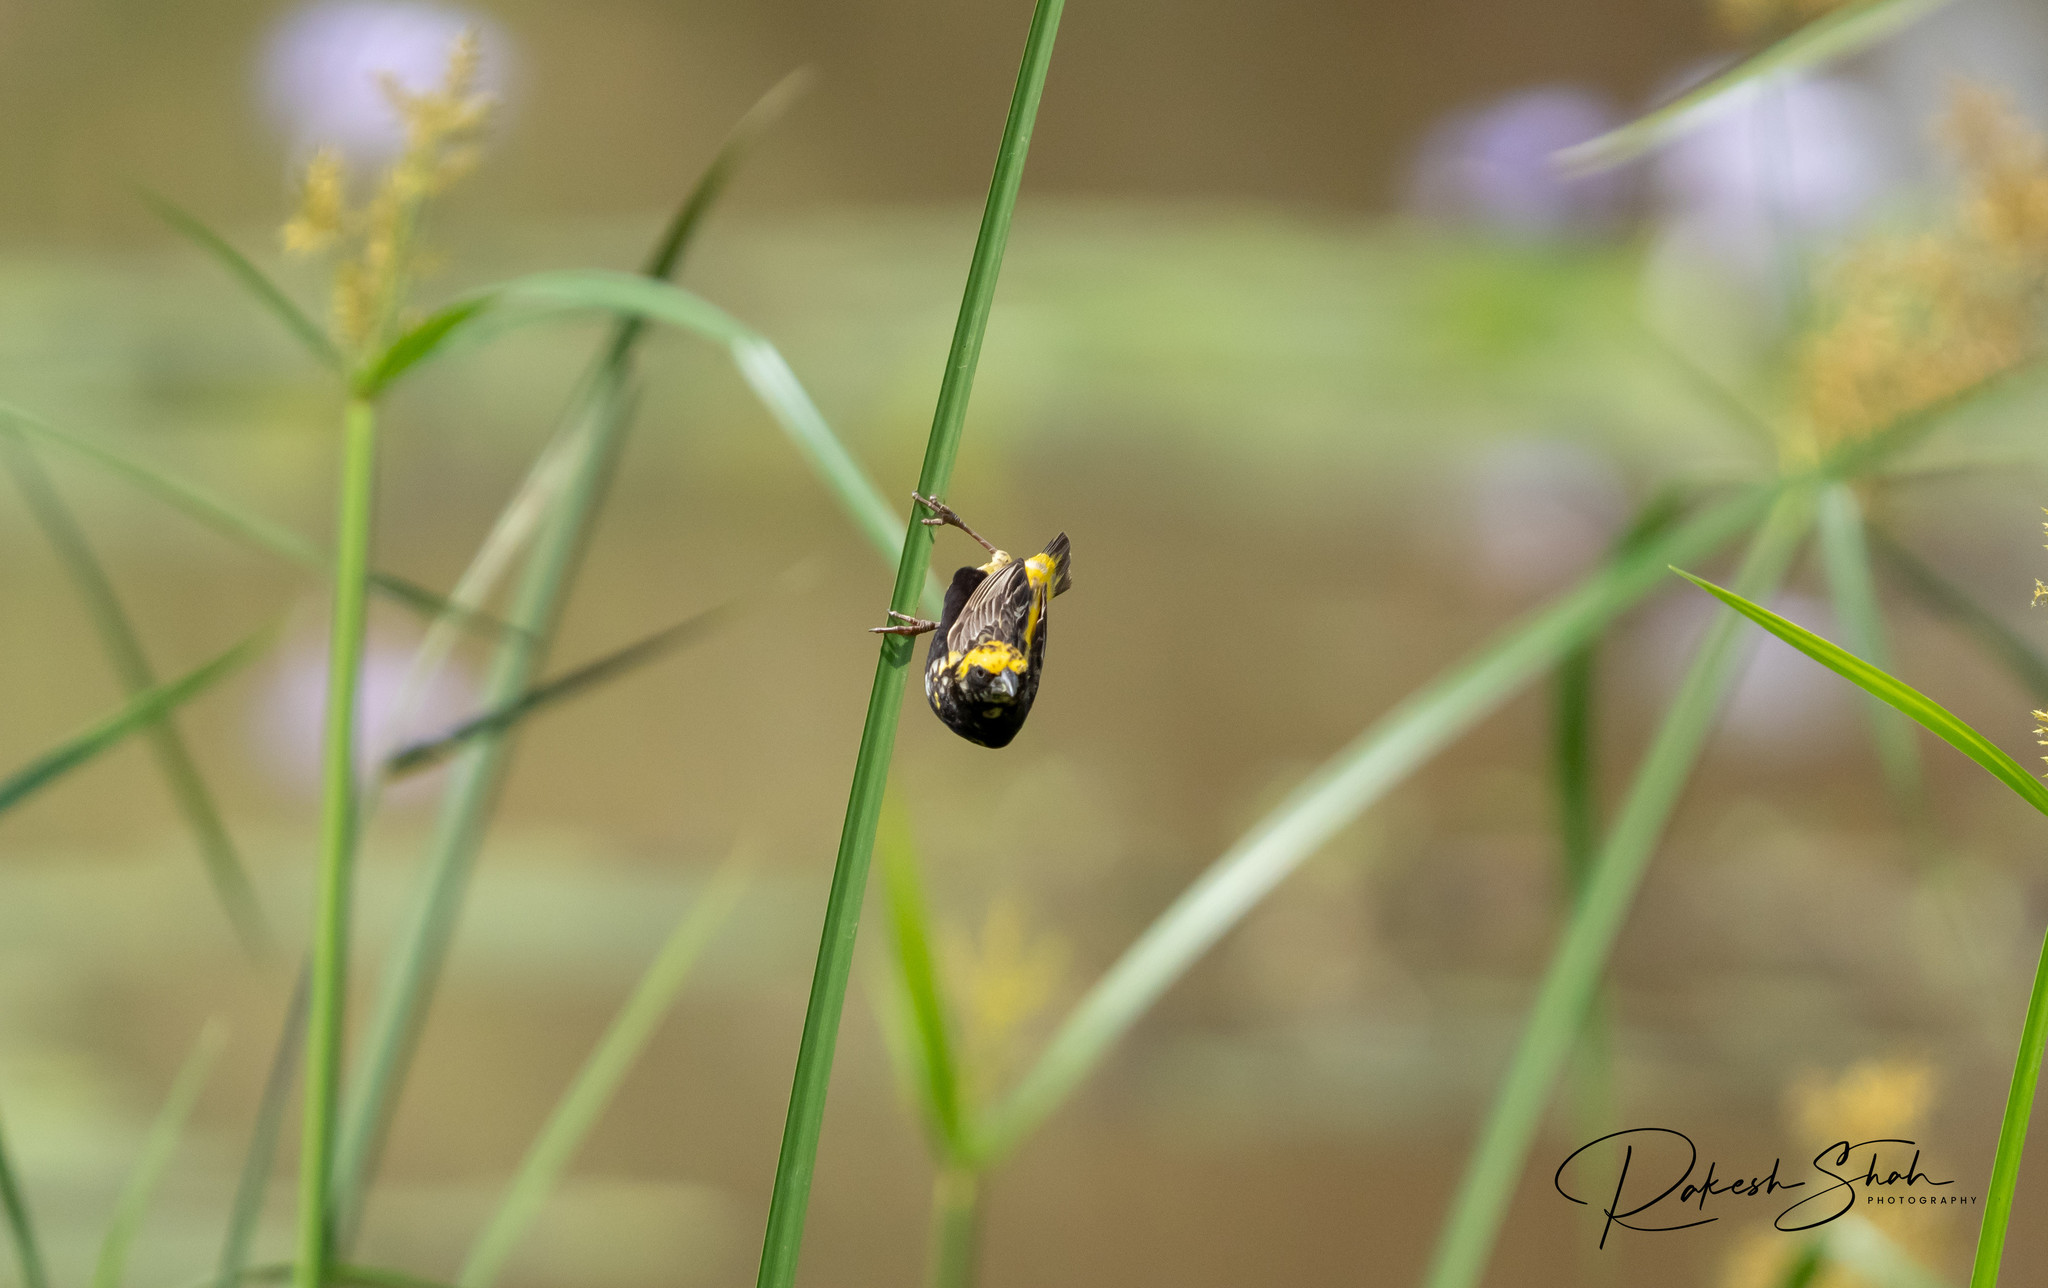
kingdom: Animalia
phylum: Chordata
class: Aves
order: Passeriformes
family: Ploceidae
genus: Euplectes
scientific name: Euplectes afer
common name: Yellow-crowned bishop
